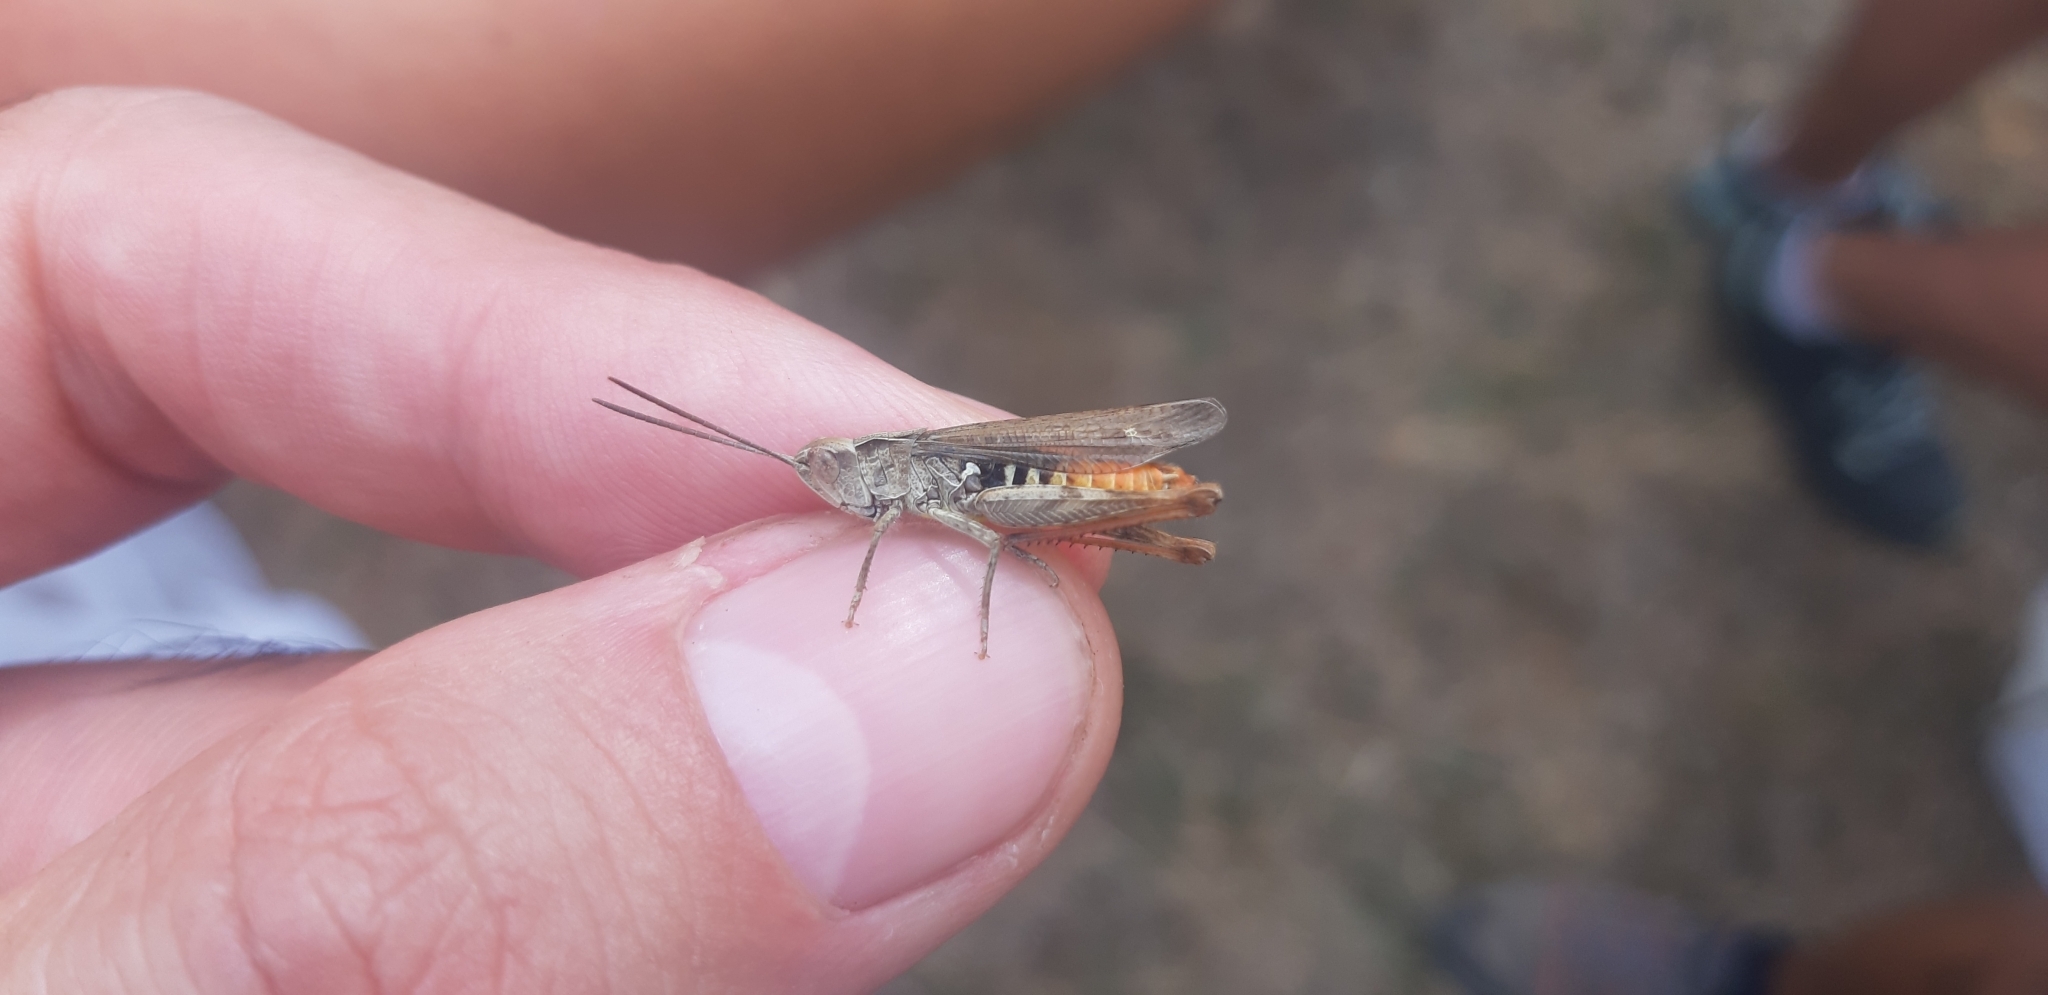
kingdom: Animalia
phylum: Arthropoda
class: Insecta
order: Orthoptera
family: Acrididae
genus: Chorthippus
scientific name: Chorthippus biguttulus
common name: Bow-winged grasshopper
